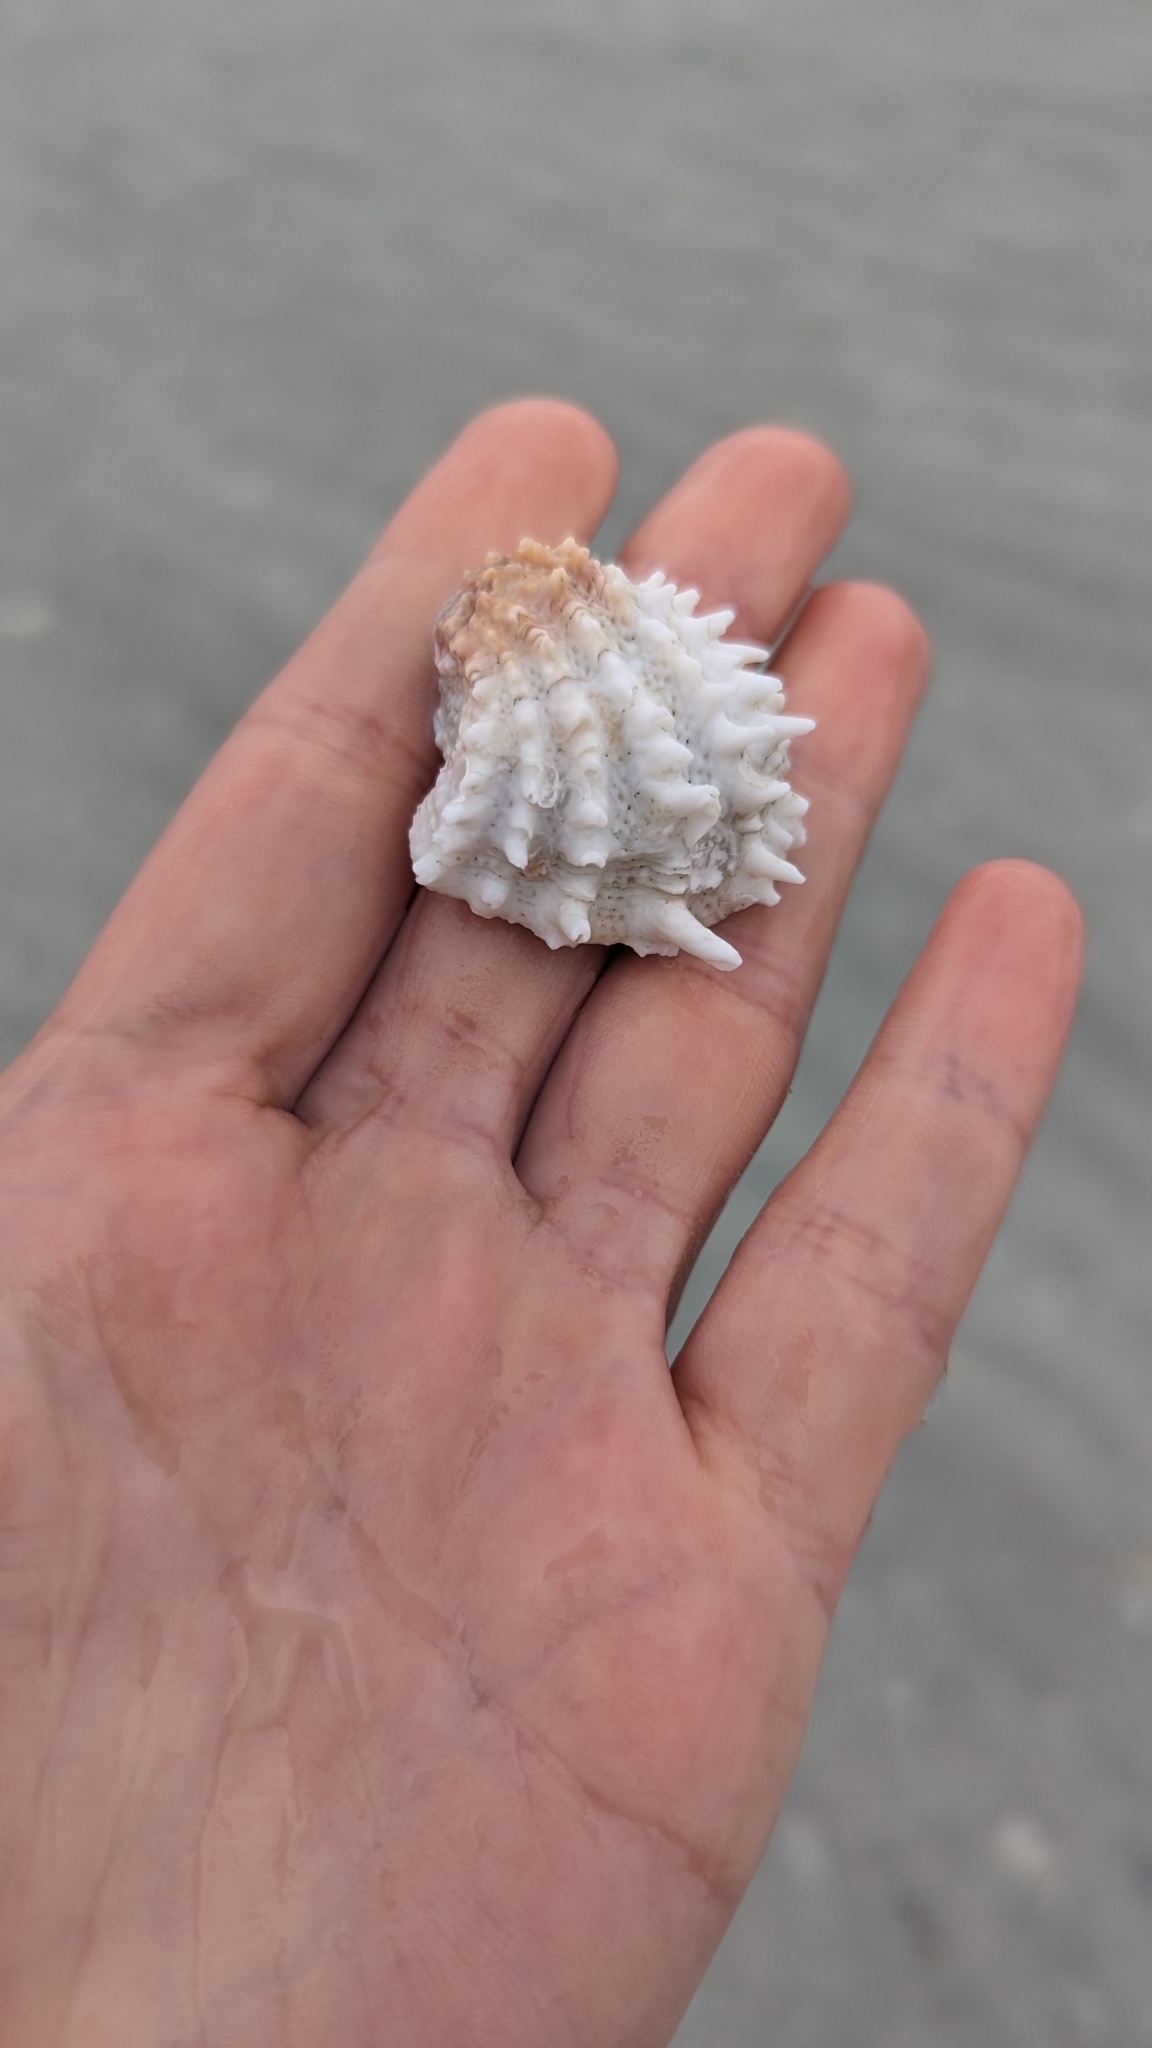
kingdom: Animalia
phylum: Mollusca
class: Bivalvia
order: Venerida
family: Chamidae
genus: Arcinella
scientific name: Arcinella cornuta
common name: Florida spiny jewel box
